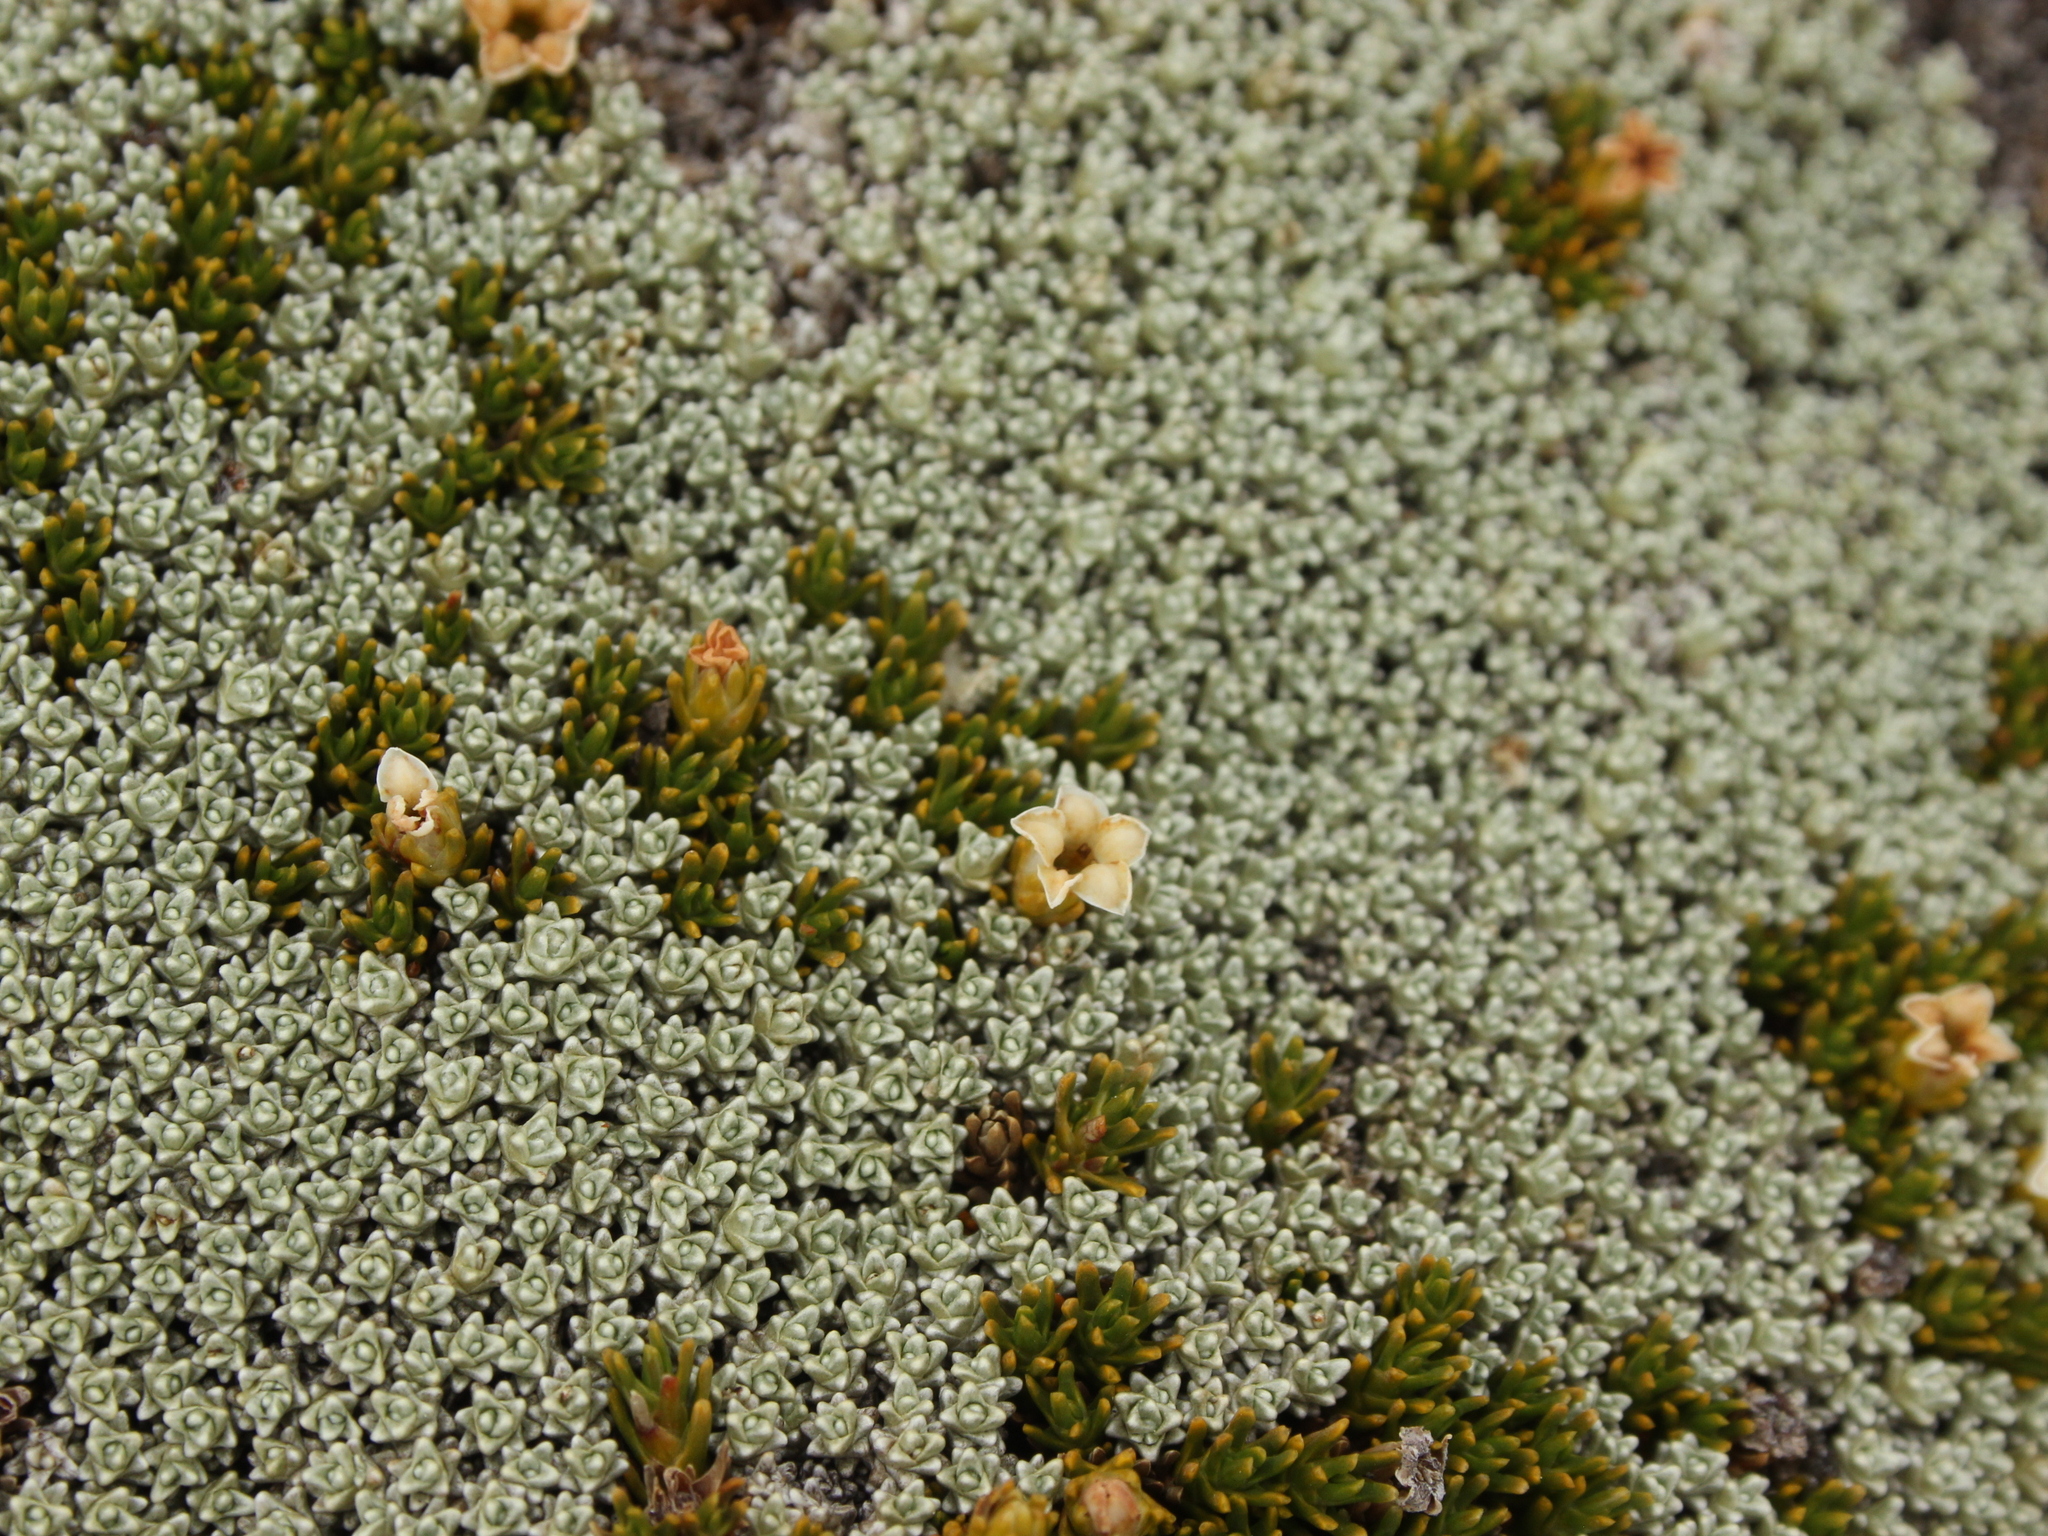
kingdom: Plantae
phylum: Tracheophyta
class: Magnoliopsida
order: Ericales
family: Ericaceae
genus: Dracophyllum
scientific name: Dracophyllum muscoides
